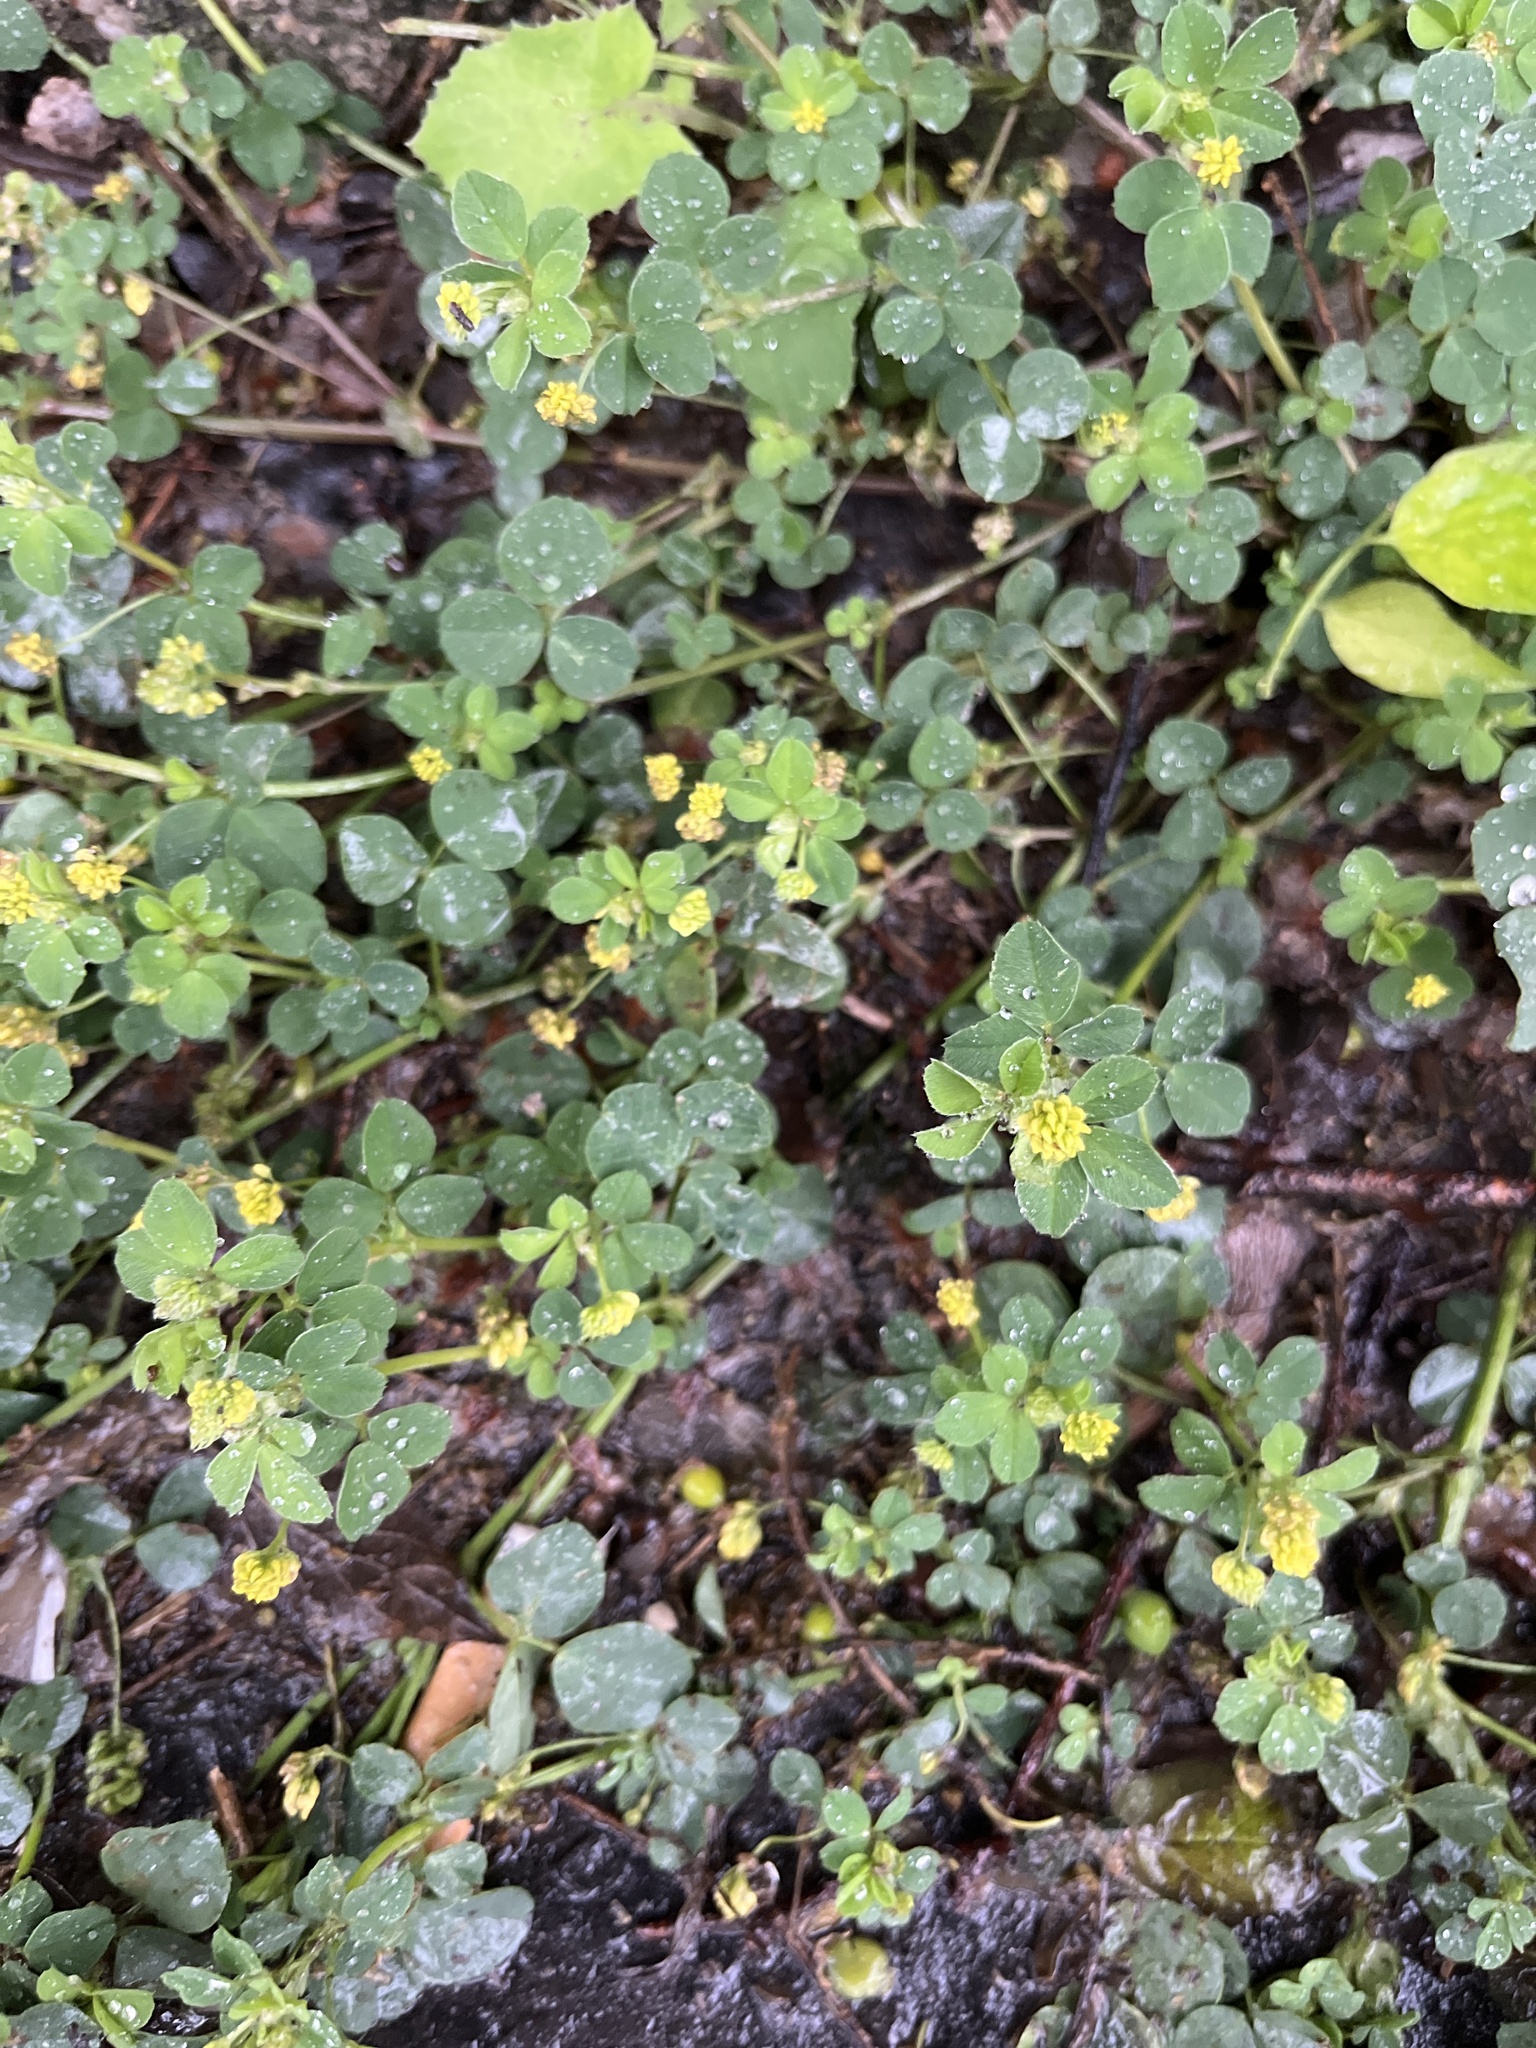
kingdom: Plantae
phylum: Tracheophyta
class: Magnoliopsida
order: Fabales
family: Fabaceae
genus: Medicago
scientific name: Medicago lupulina
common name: Black medick
